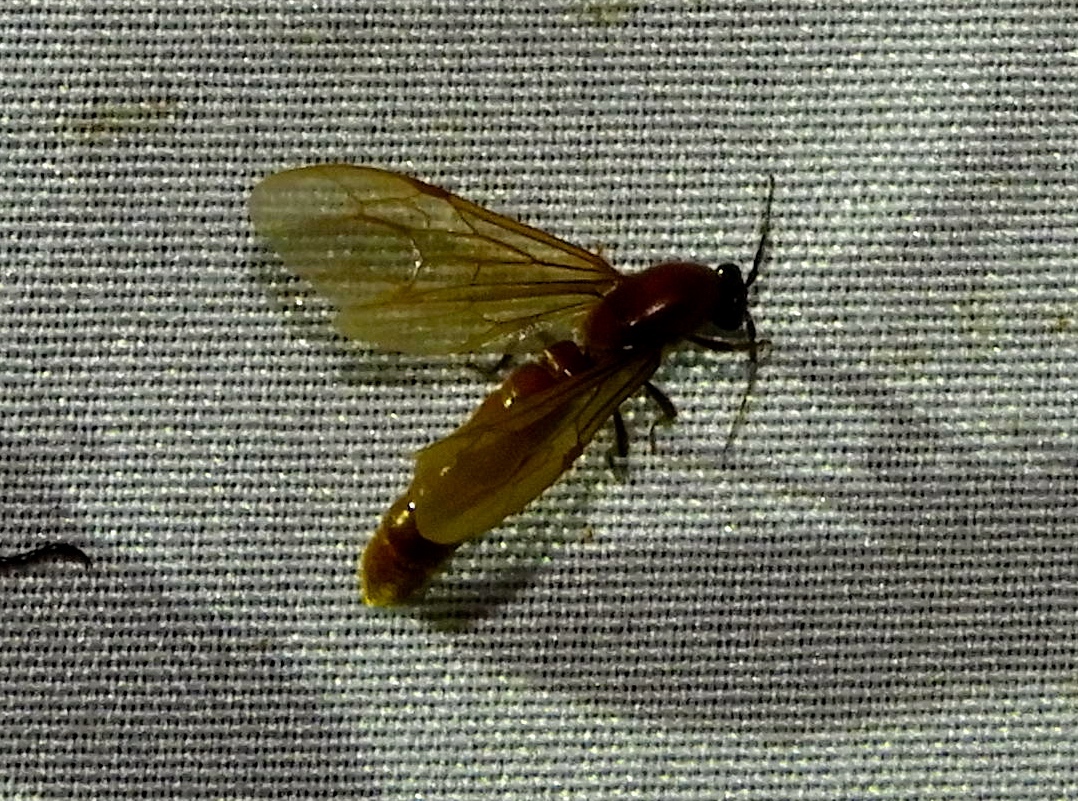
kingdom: Animalia
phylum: Arthropoda
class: Insecta
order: Hymenoptera
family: Formicidae
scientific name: Formicidae
